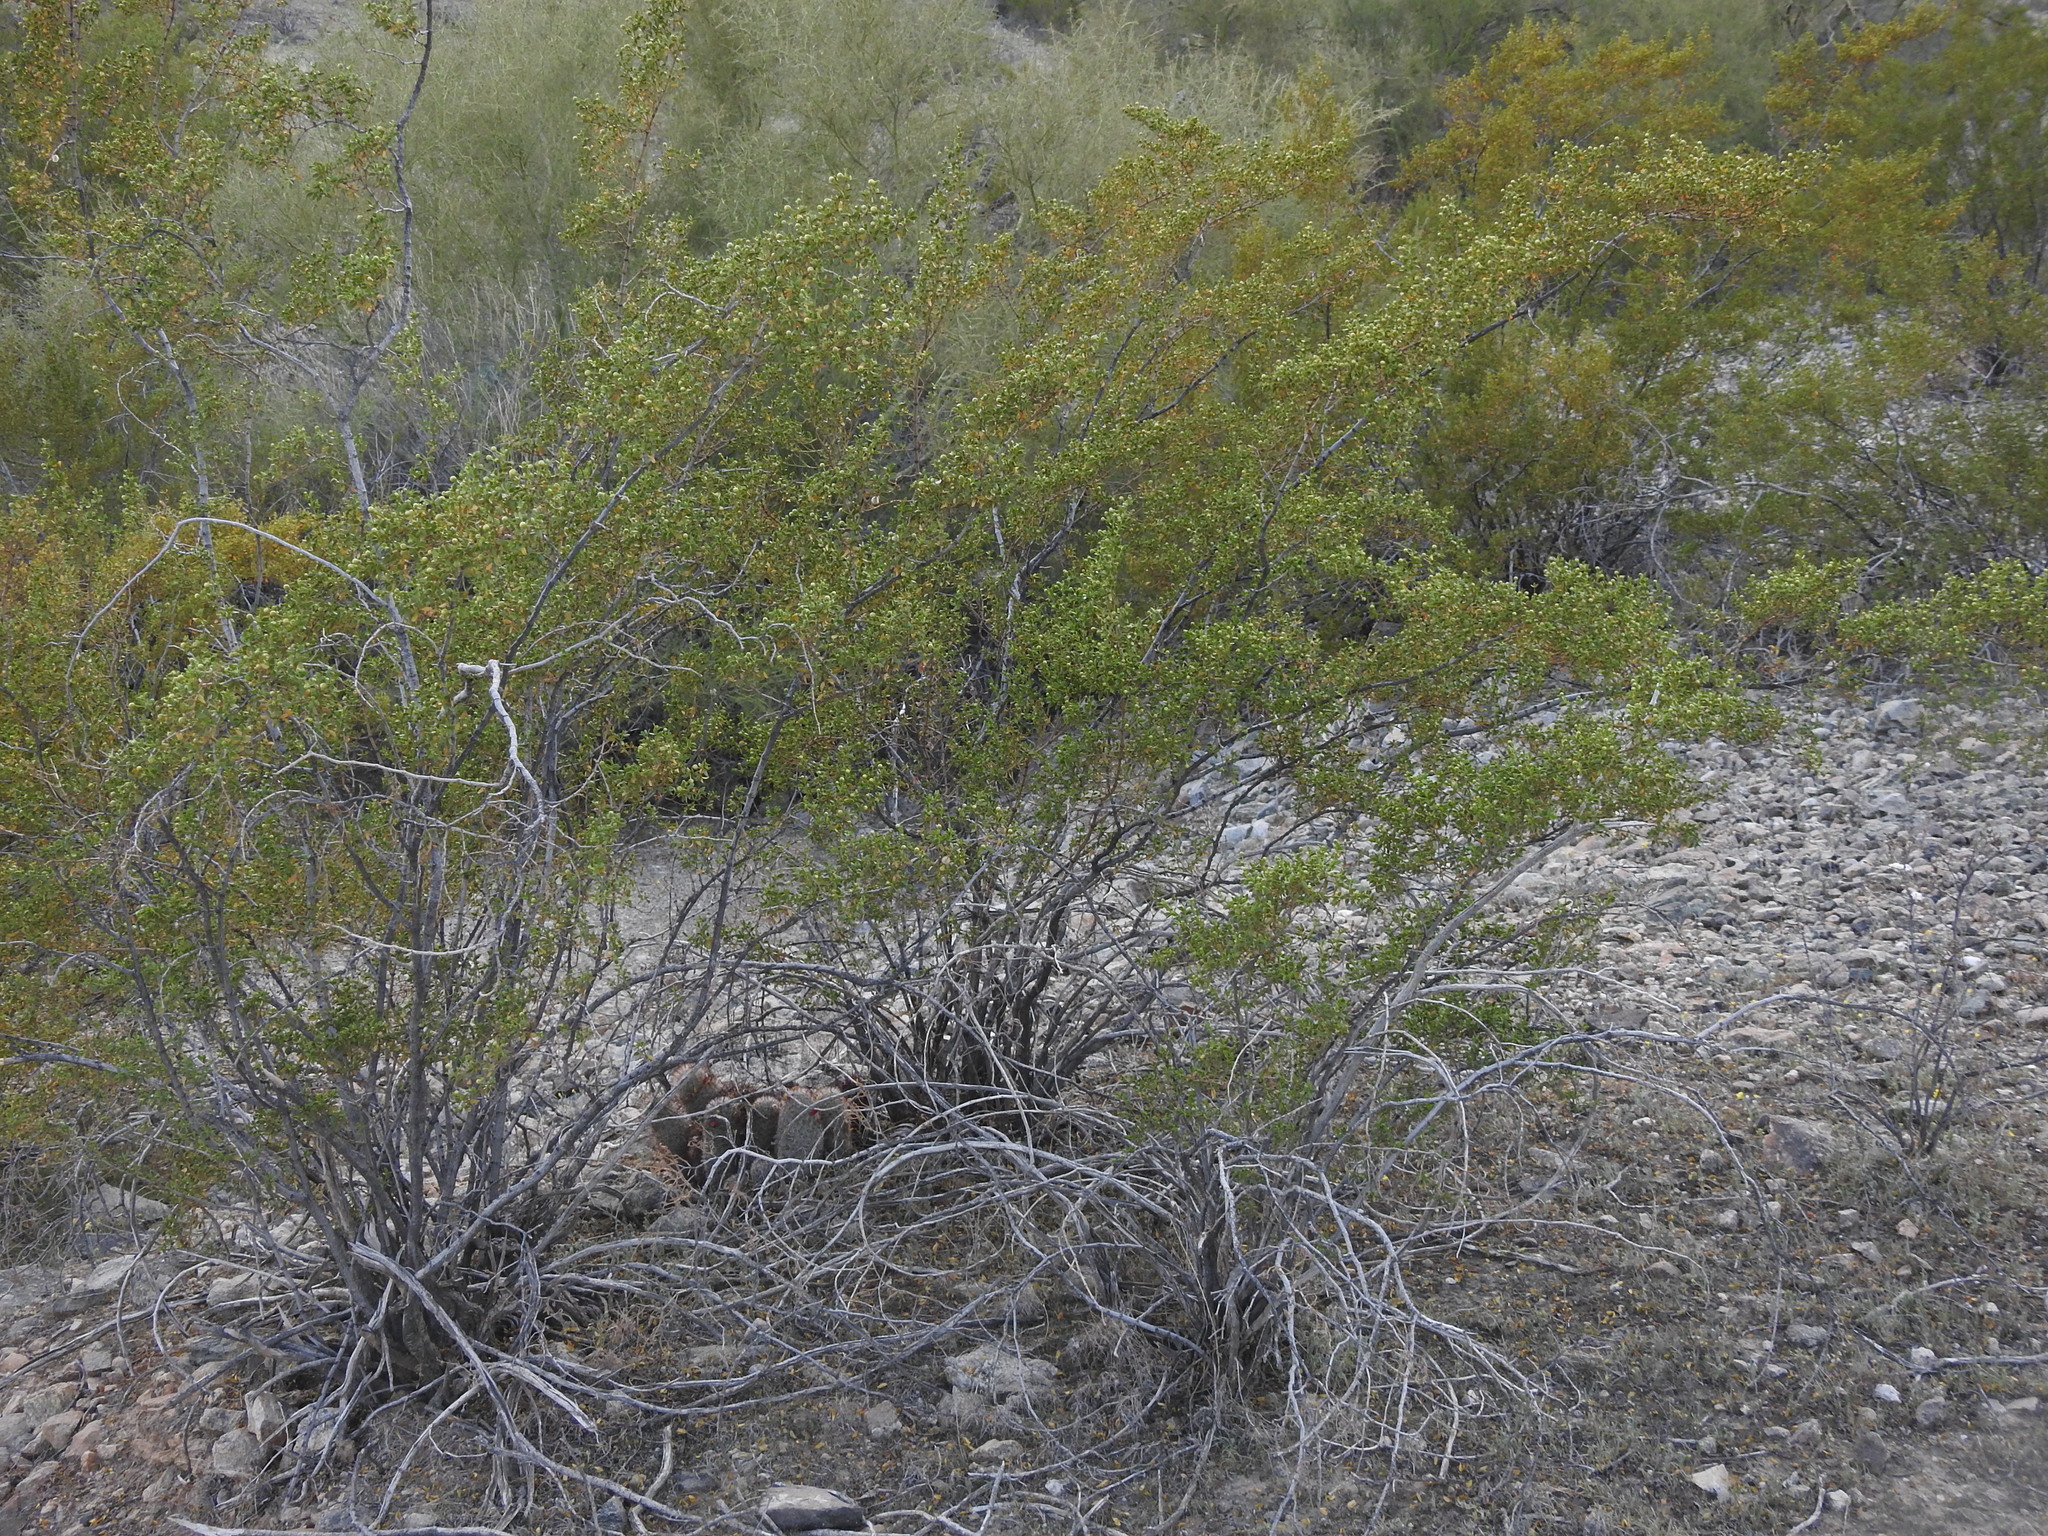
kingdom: Plantae
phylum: Tracheophyta
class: Magnoliopsida
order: Zygophyllales
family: Zygophyllaceae
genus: Larrea
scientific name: Larrea tridentata
